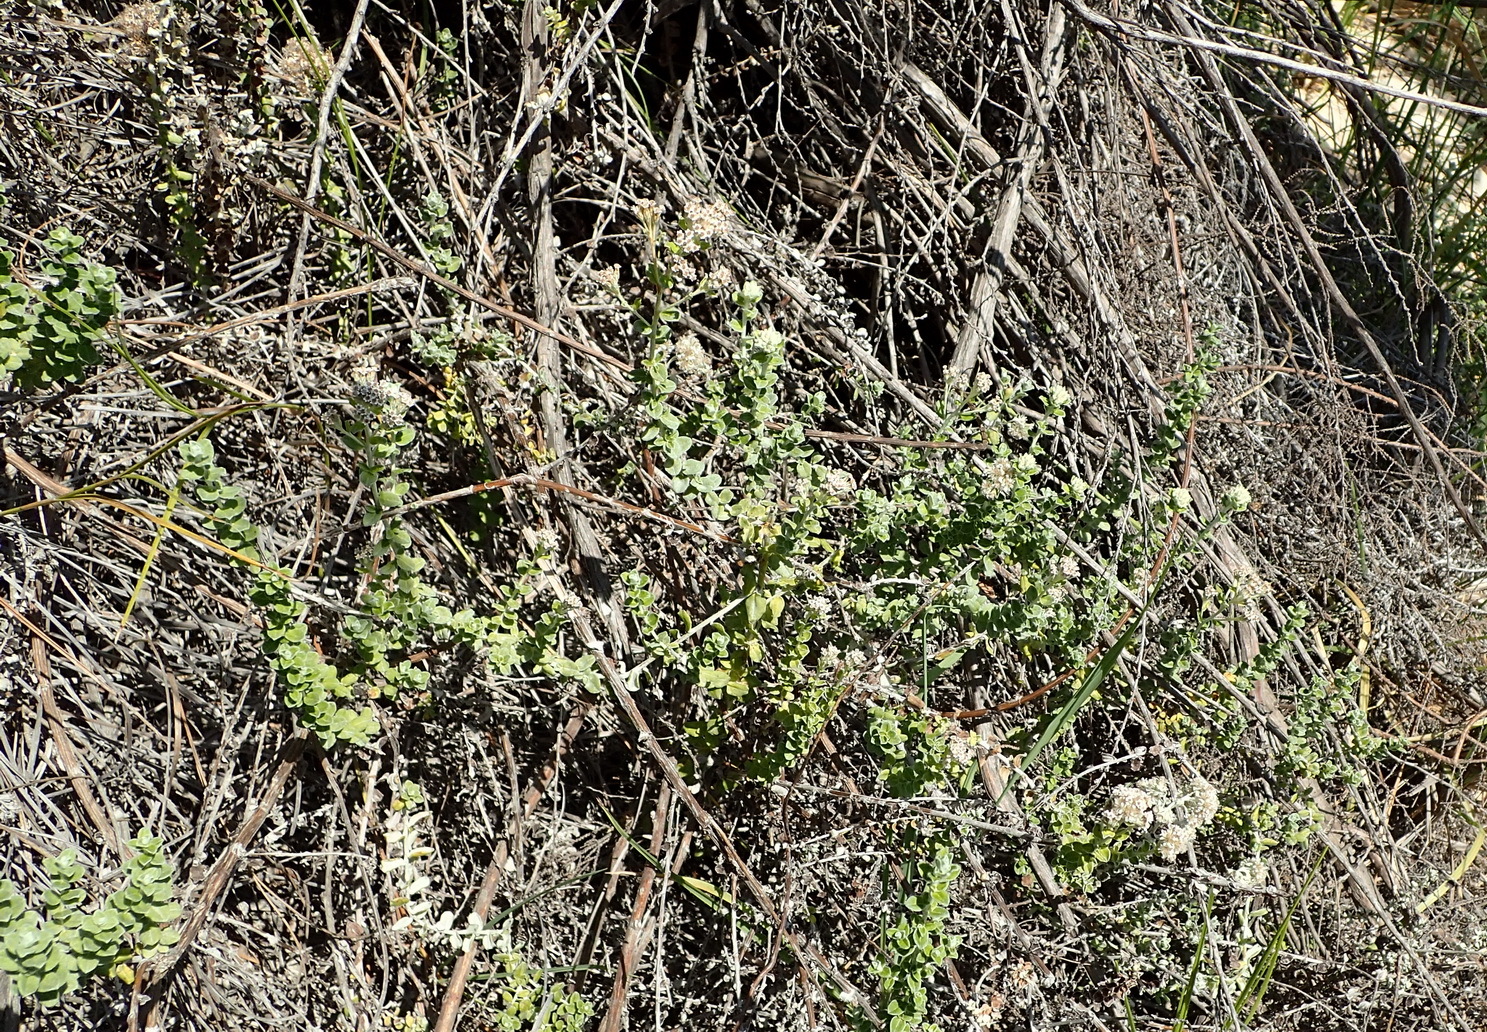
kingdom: Plantae
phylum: Tracheophyta
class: Magnoliopsida
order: Asterales
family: Asteraceae
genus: Plecostachys
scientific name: Plecostachys serpyllifolia
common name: Petite licorice
